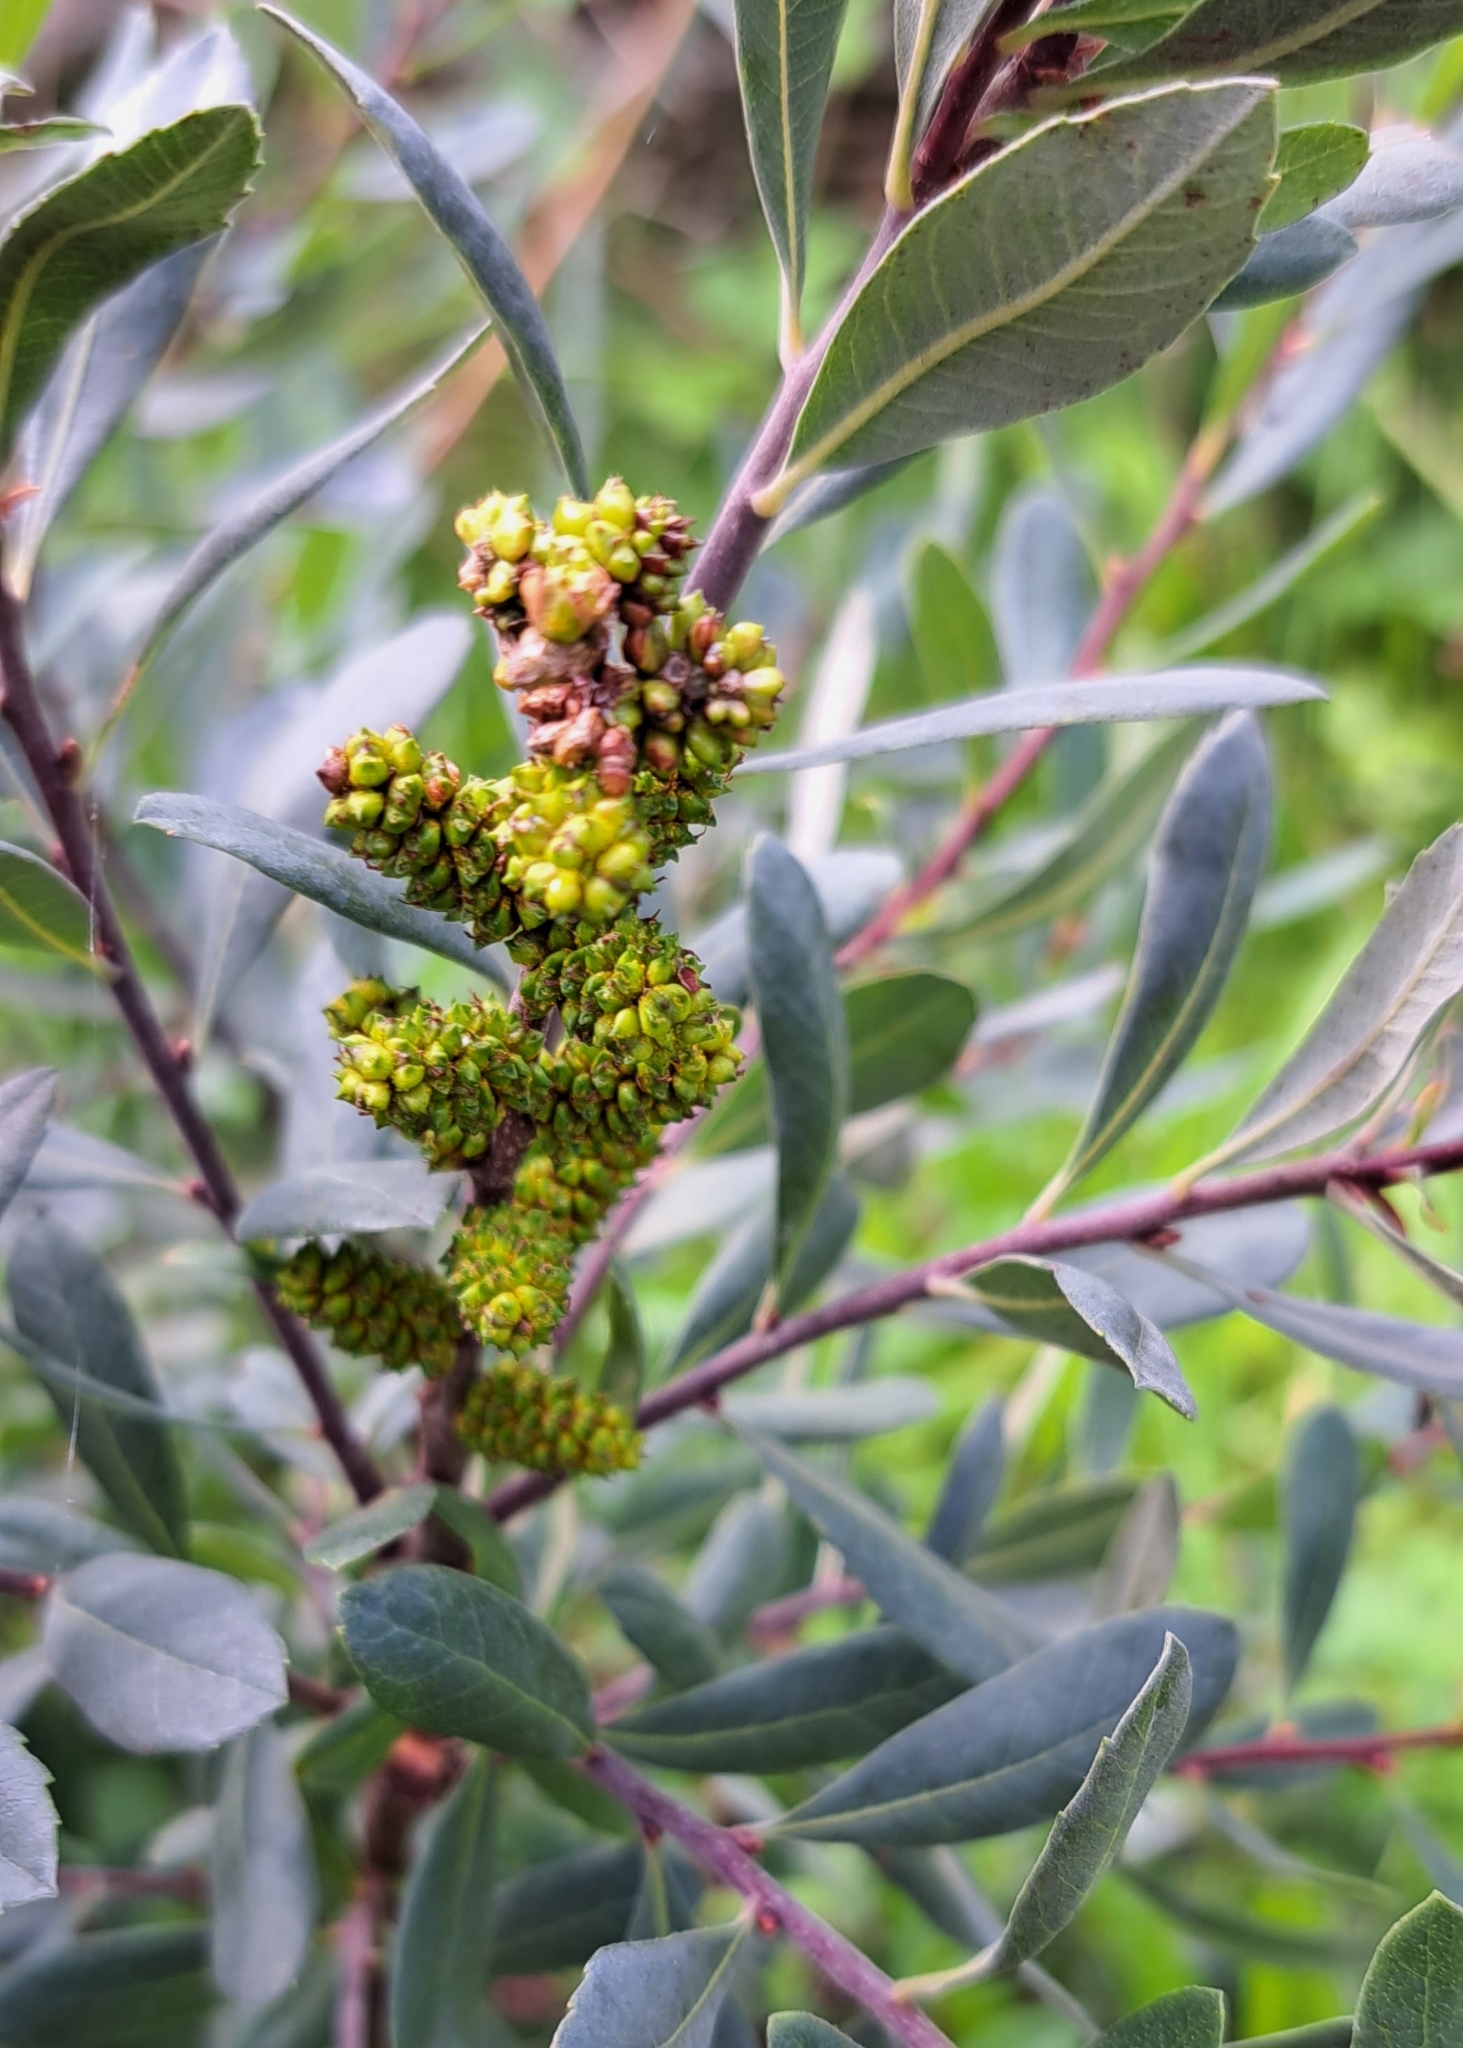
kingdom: Plantae
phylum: Tracheophyta
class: Magnoliopsida
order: Fagales
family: Myricaceae
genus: Myrica
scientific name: Myrica gale
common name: Sweet gale
